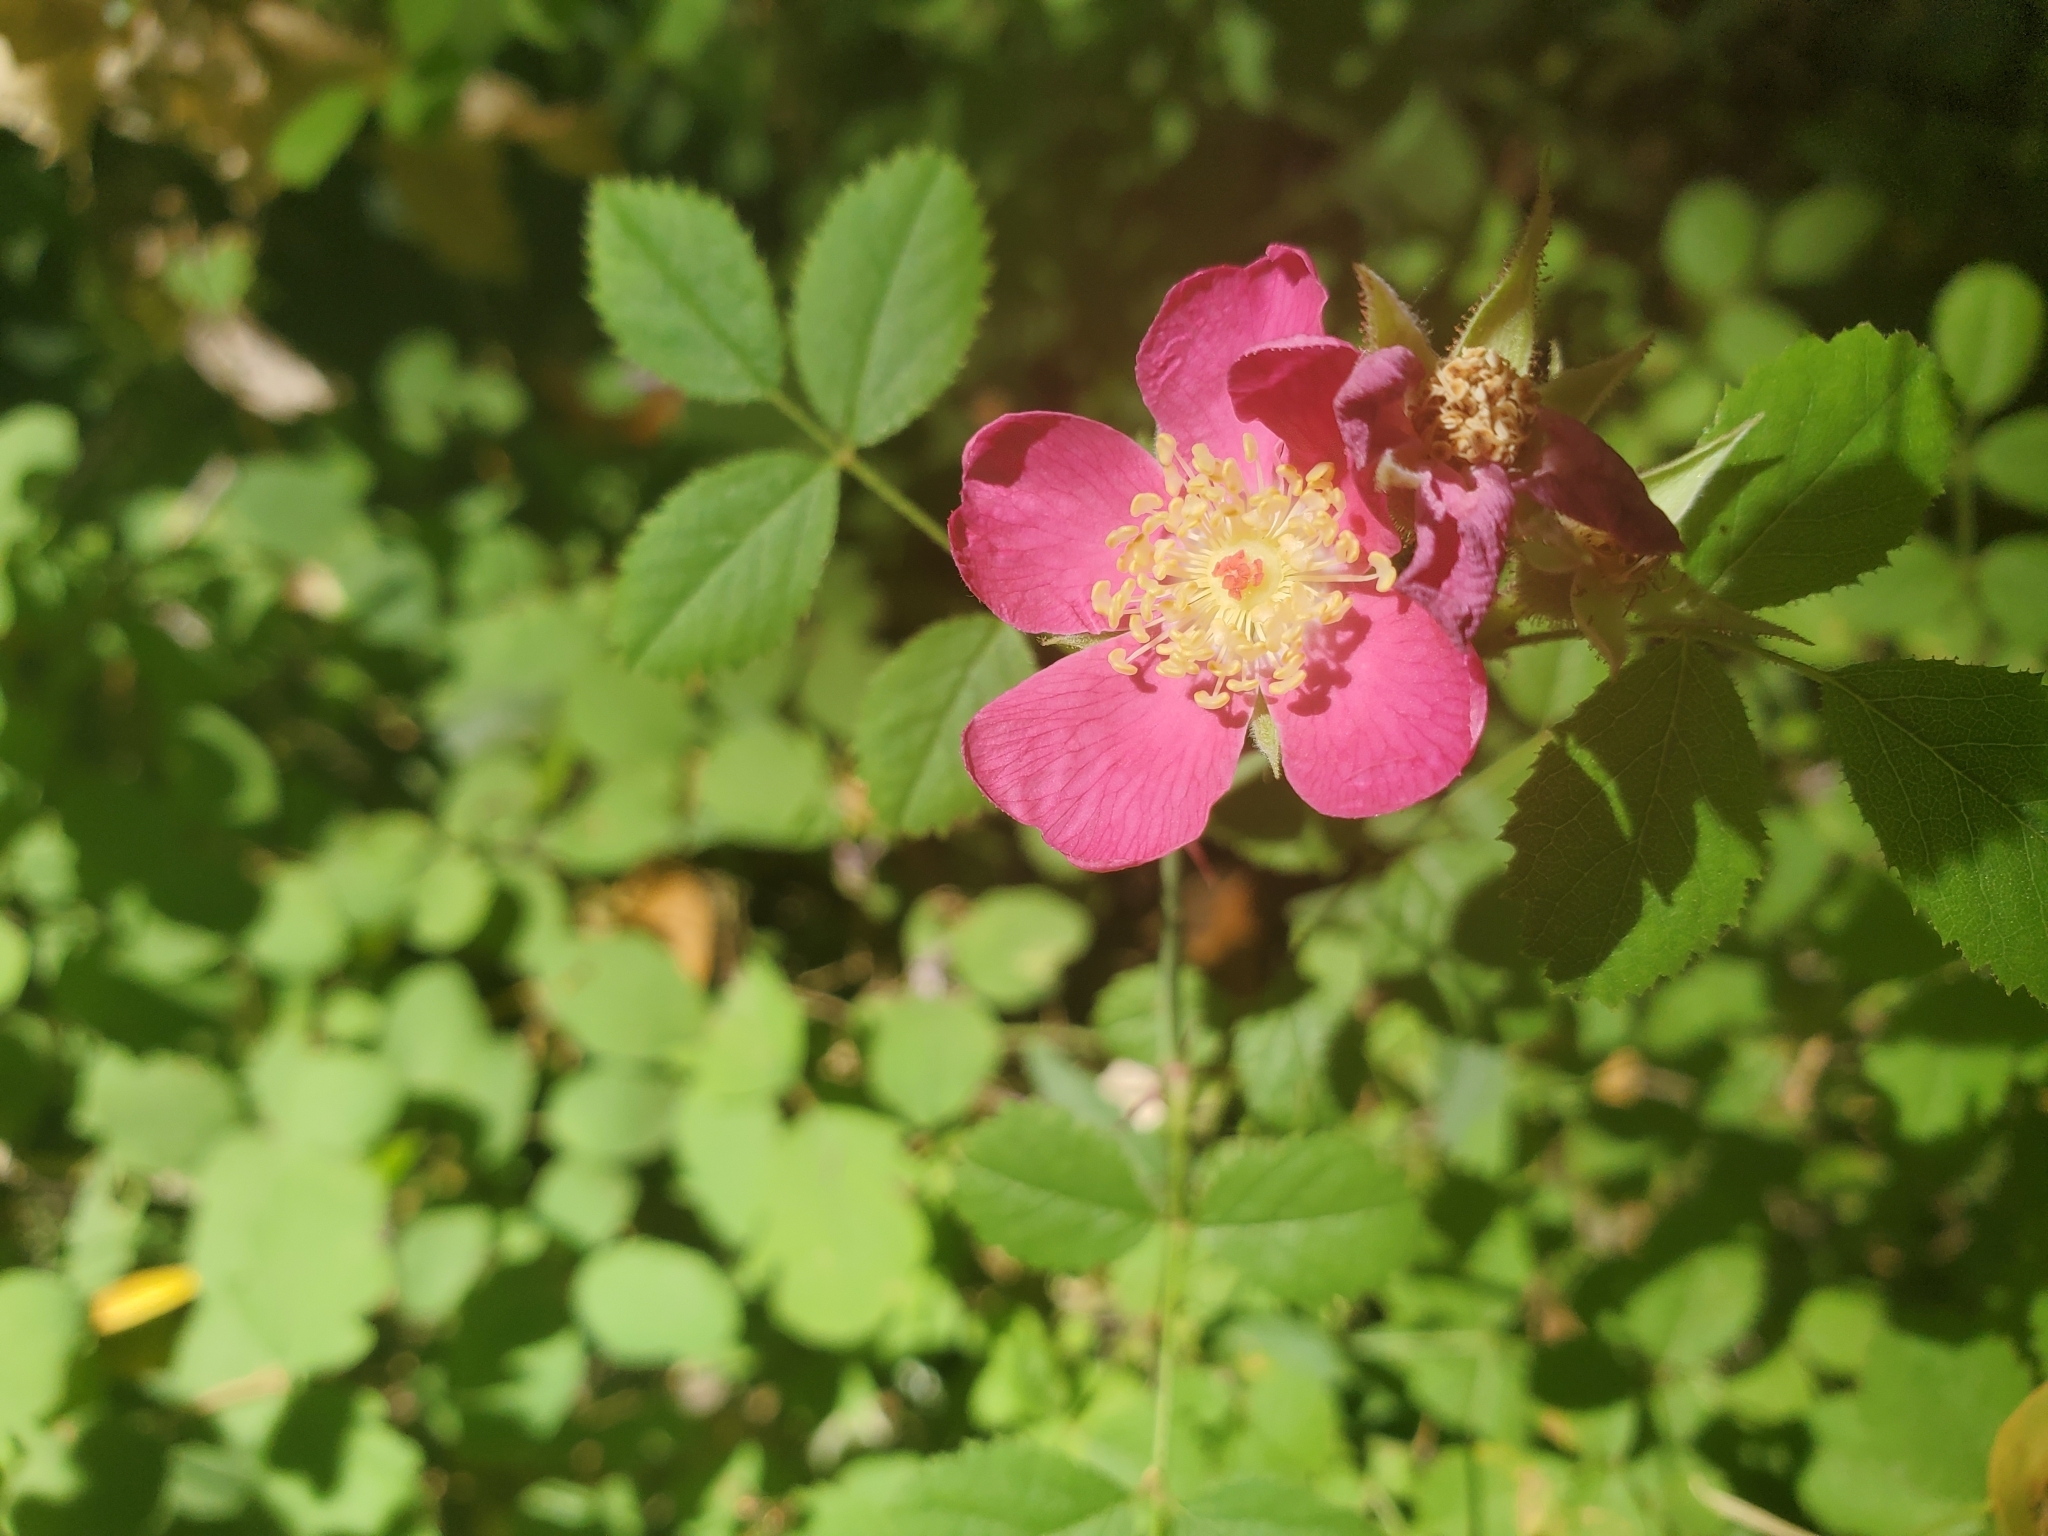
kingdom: Plantae
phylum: Tracheophyta
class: Magnoliopsida
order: Rosales
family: Rosaceae
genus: Rosa
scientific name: Rosa californica
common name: California rose
